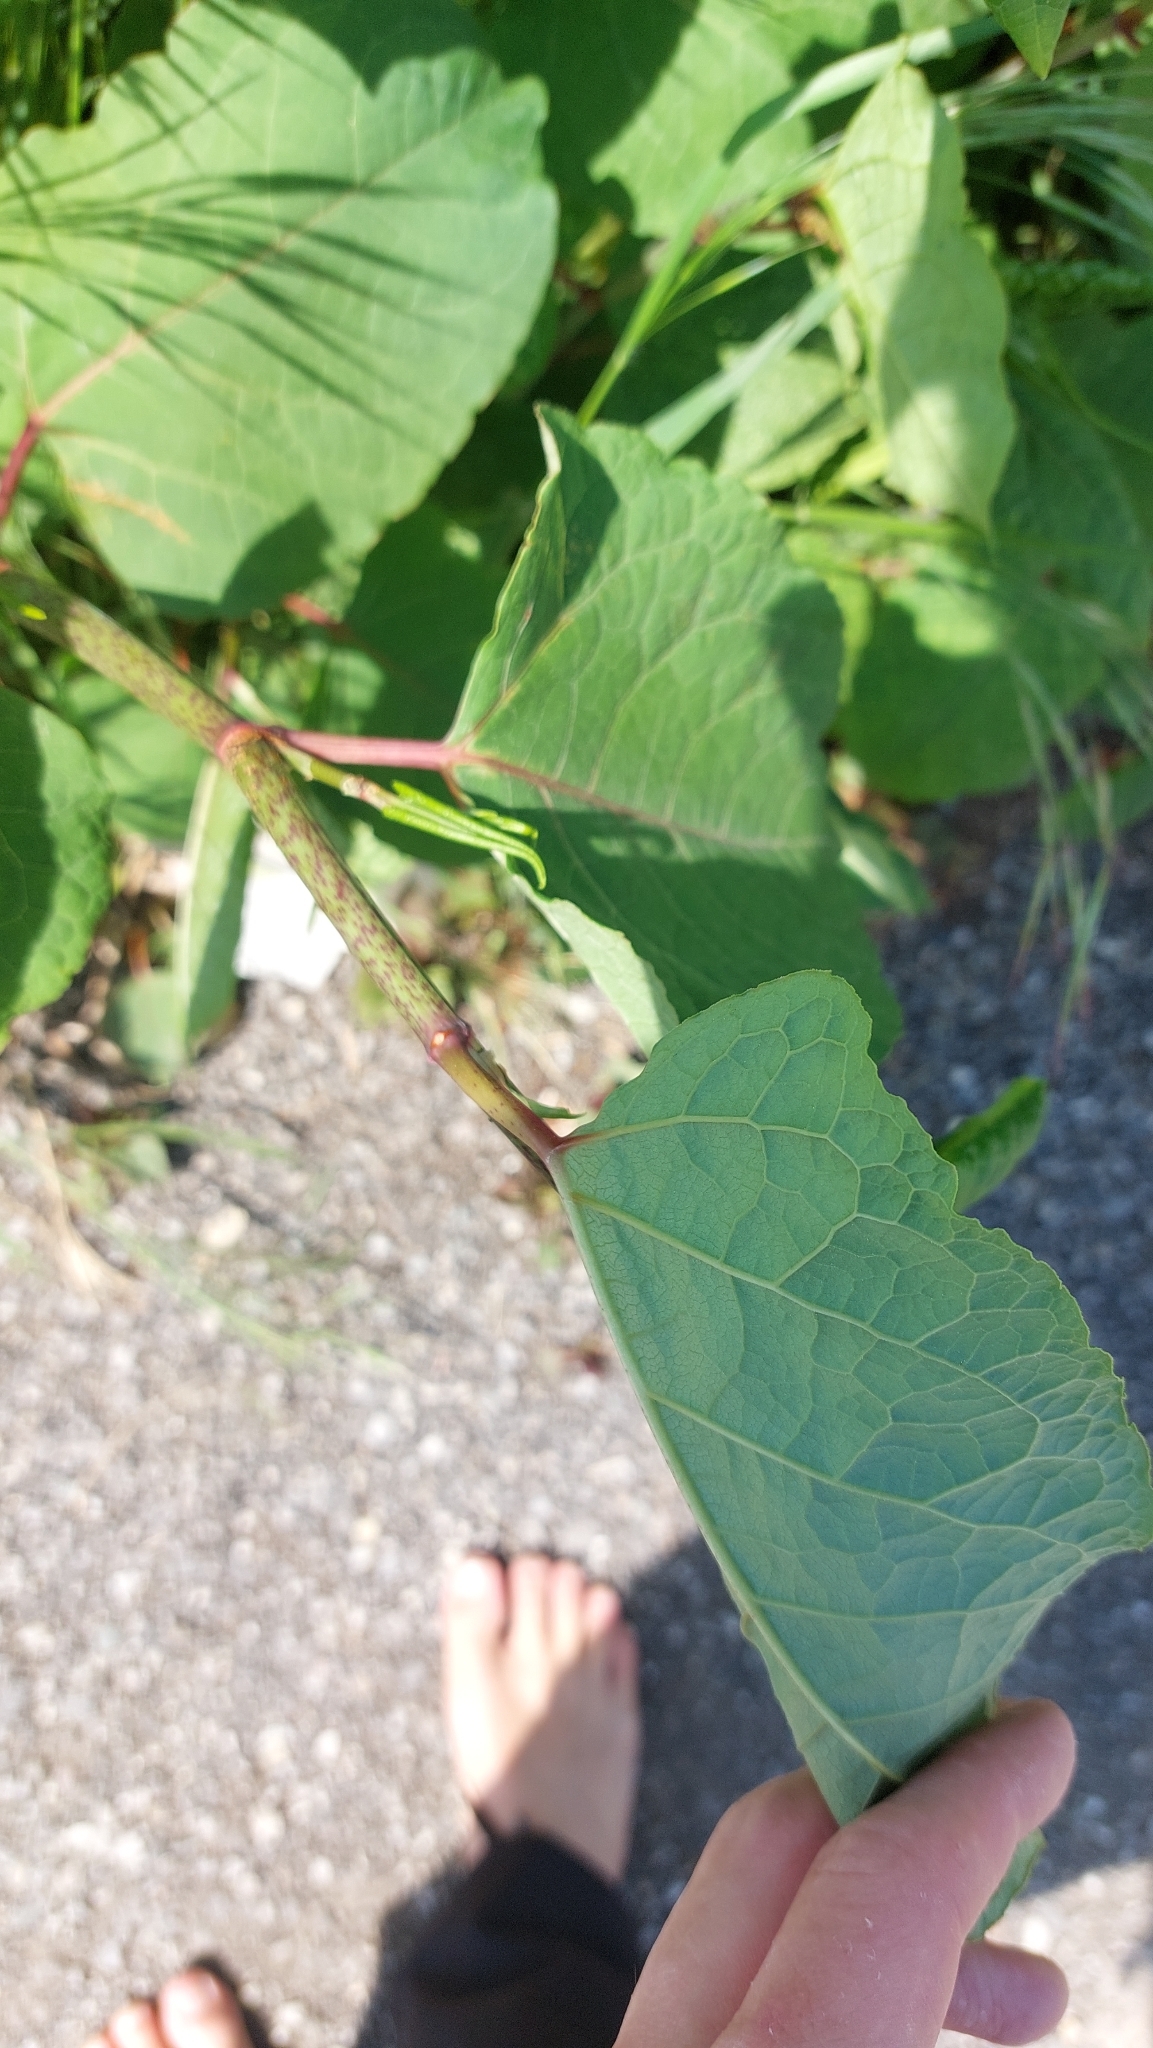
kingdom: Plantae
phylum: Tracheophyta
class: Magnoliopsida
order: Caryophyllales
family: Polygonaceae
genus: Reynoutria
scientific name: Reynoutria bohemica
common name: Bohemian knotweed
